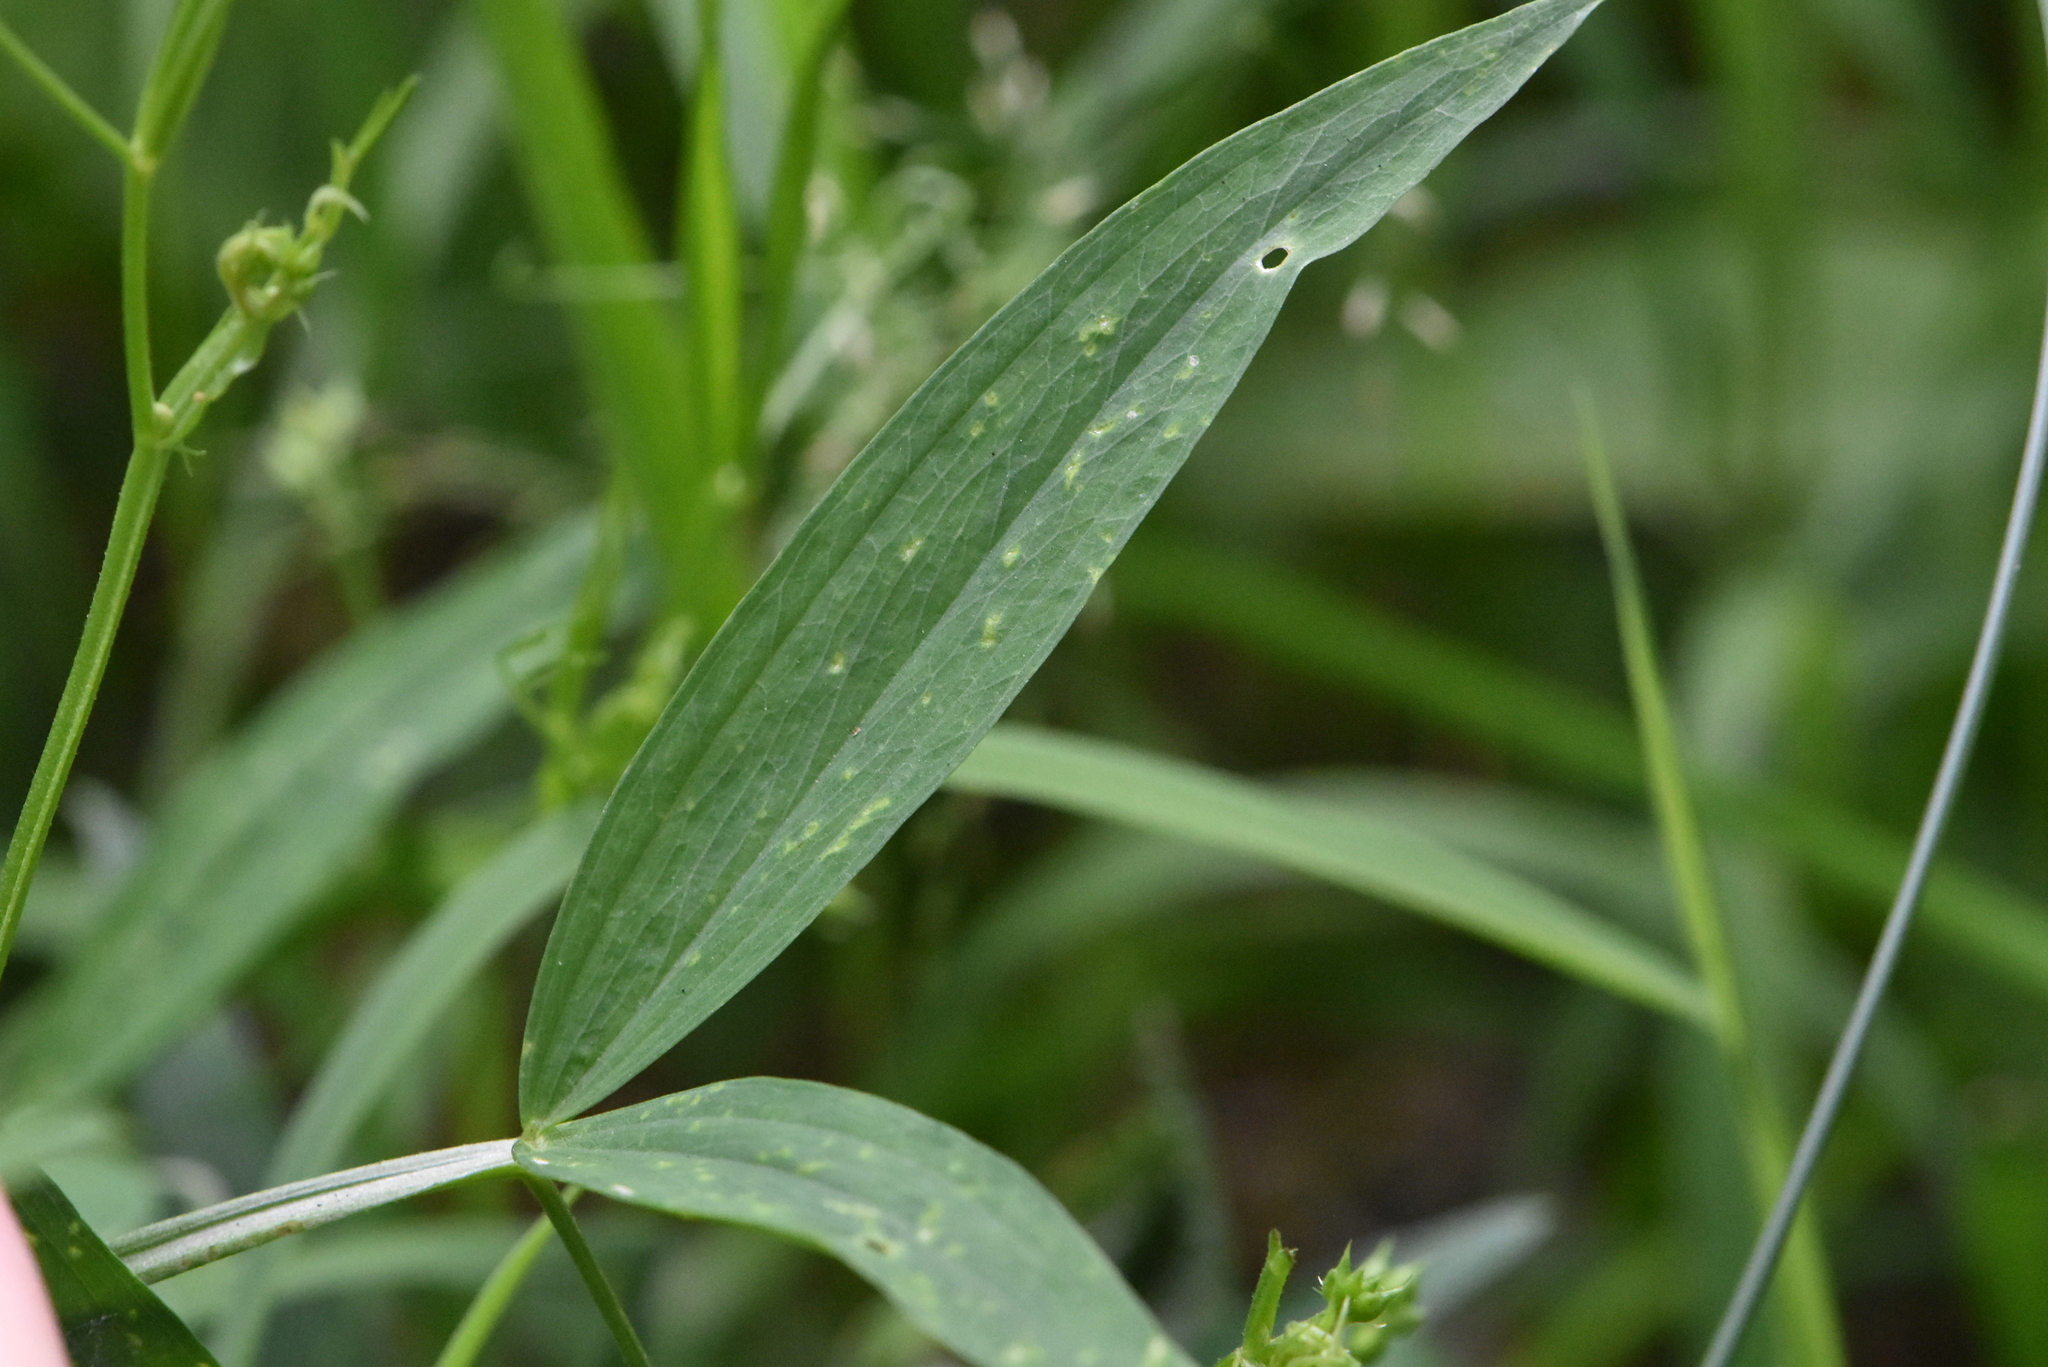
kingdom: Plantae
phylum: Tracheophyta
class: Magnoliopsida
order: Fabales
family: Fabaceae
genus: Lathyrus
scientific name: Lathyrus sylvestris
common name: Flat pea
